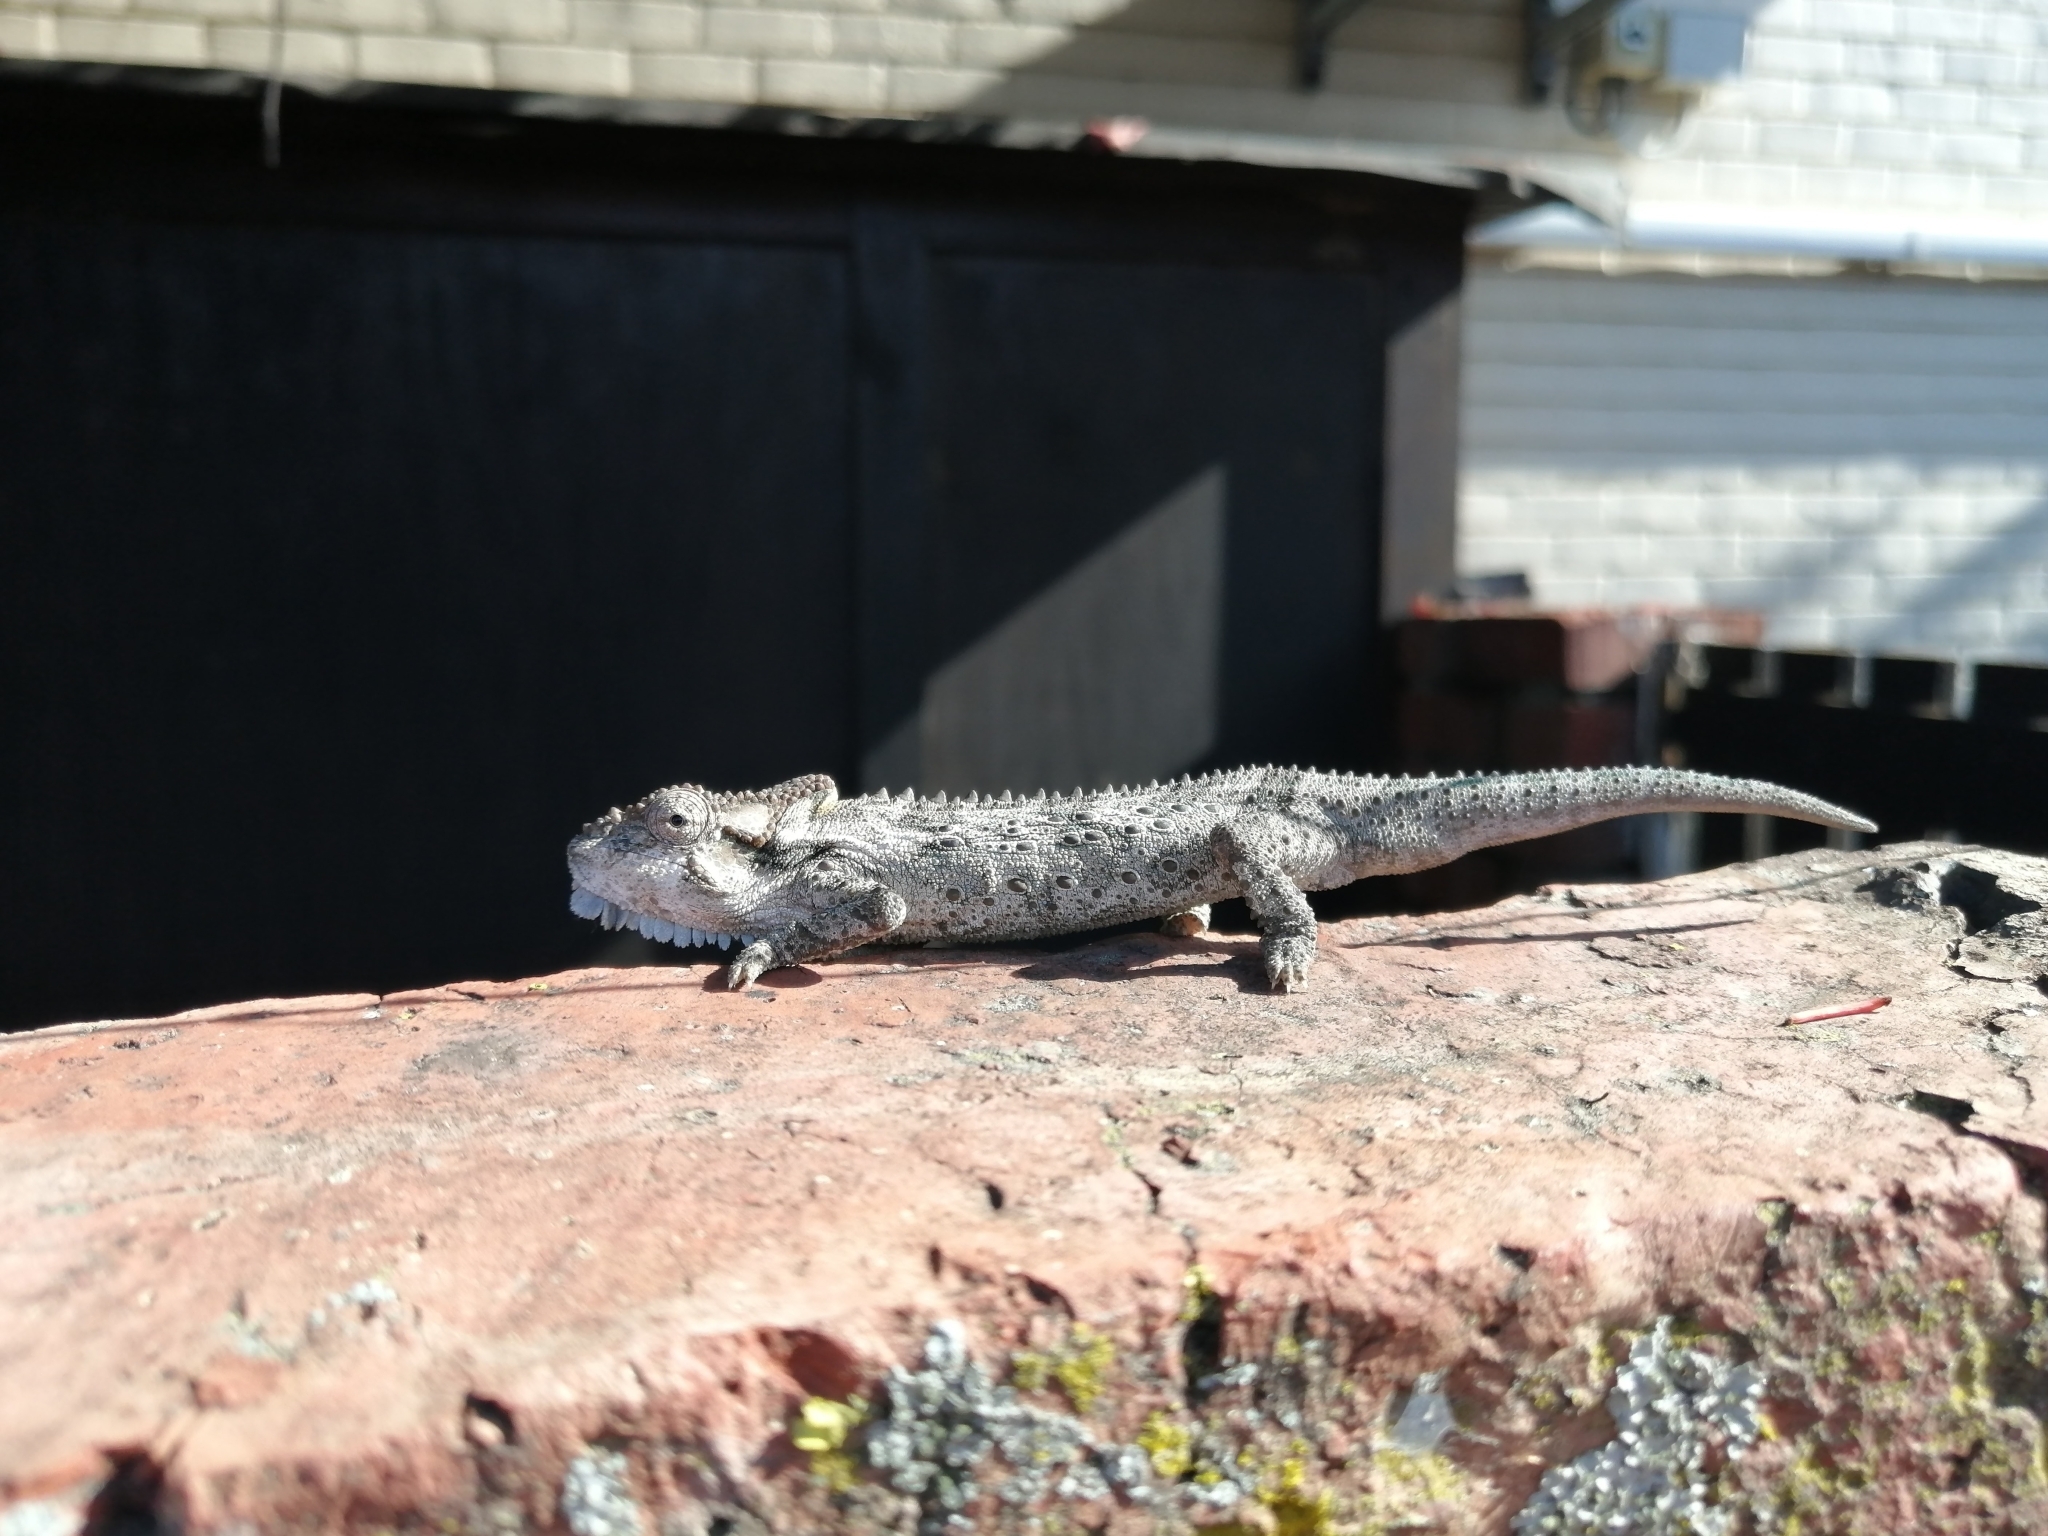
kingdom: Animalia
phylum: Chordata
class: Squamata
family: Chamaeleonidae
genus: Bradypodion
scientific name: Bradypodion ventrale
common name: Eastern cape dwarf chameleon
